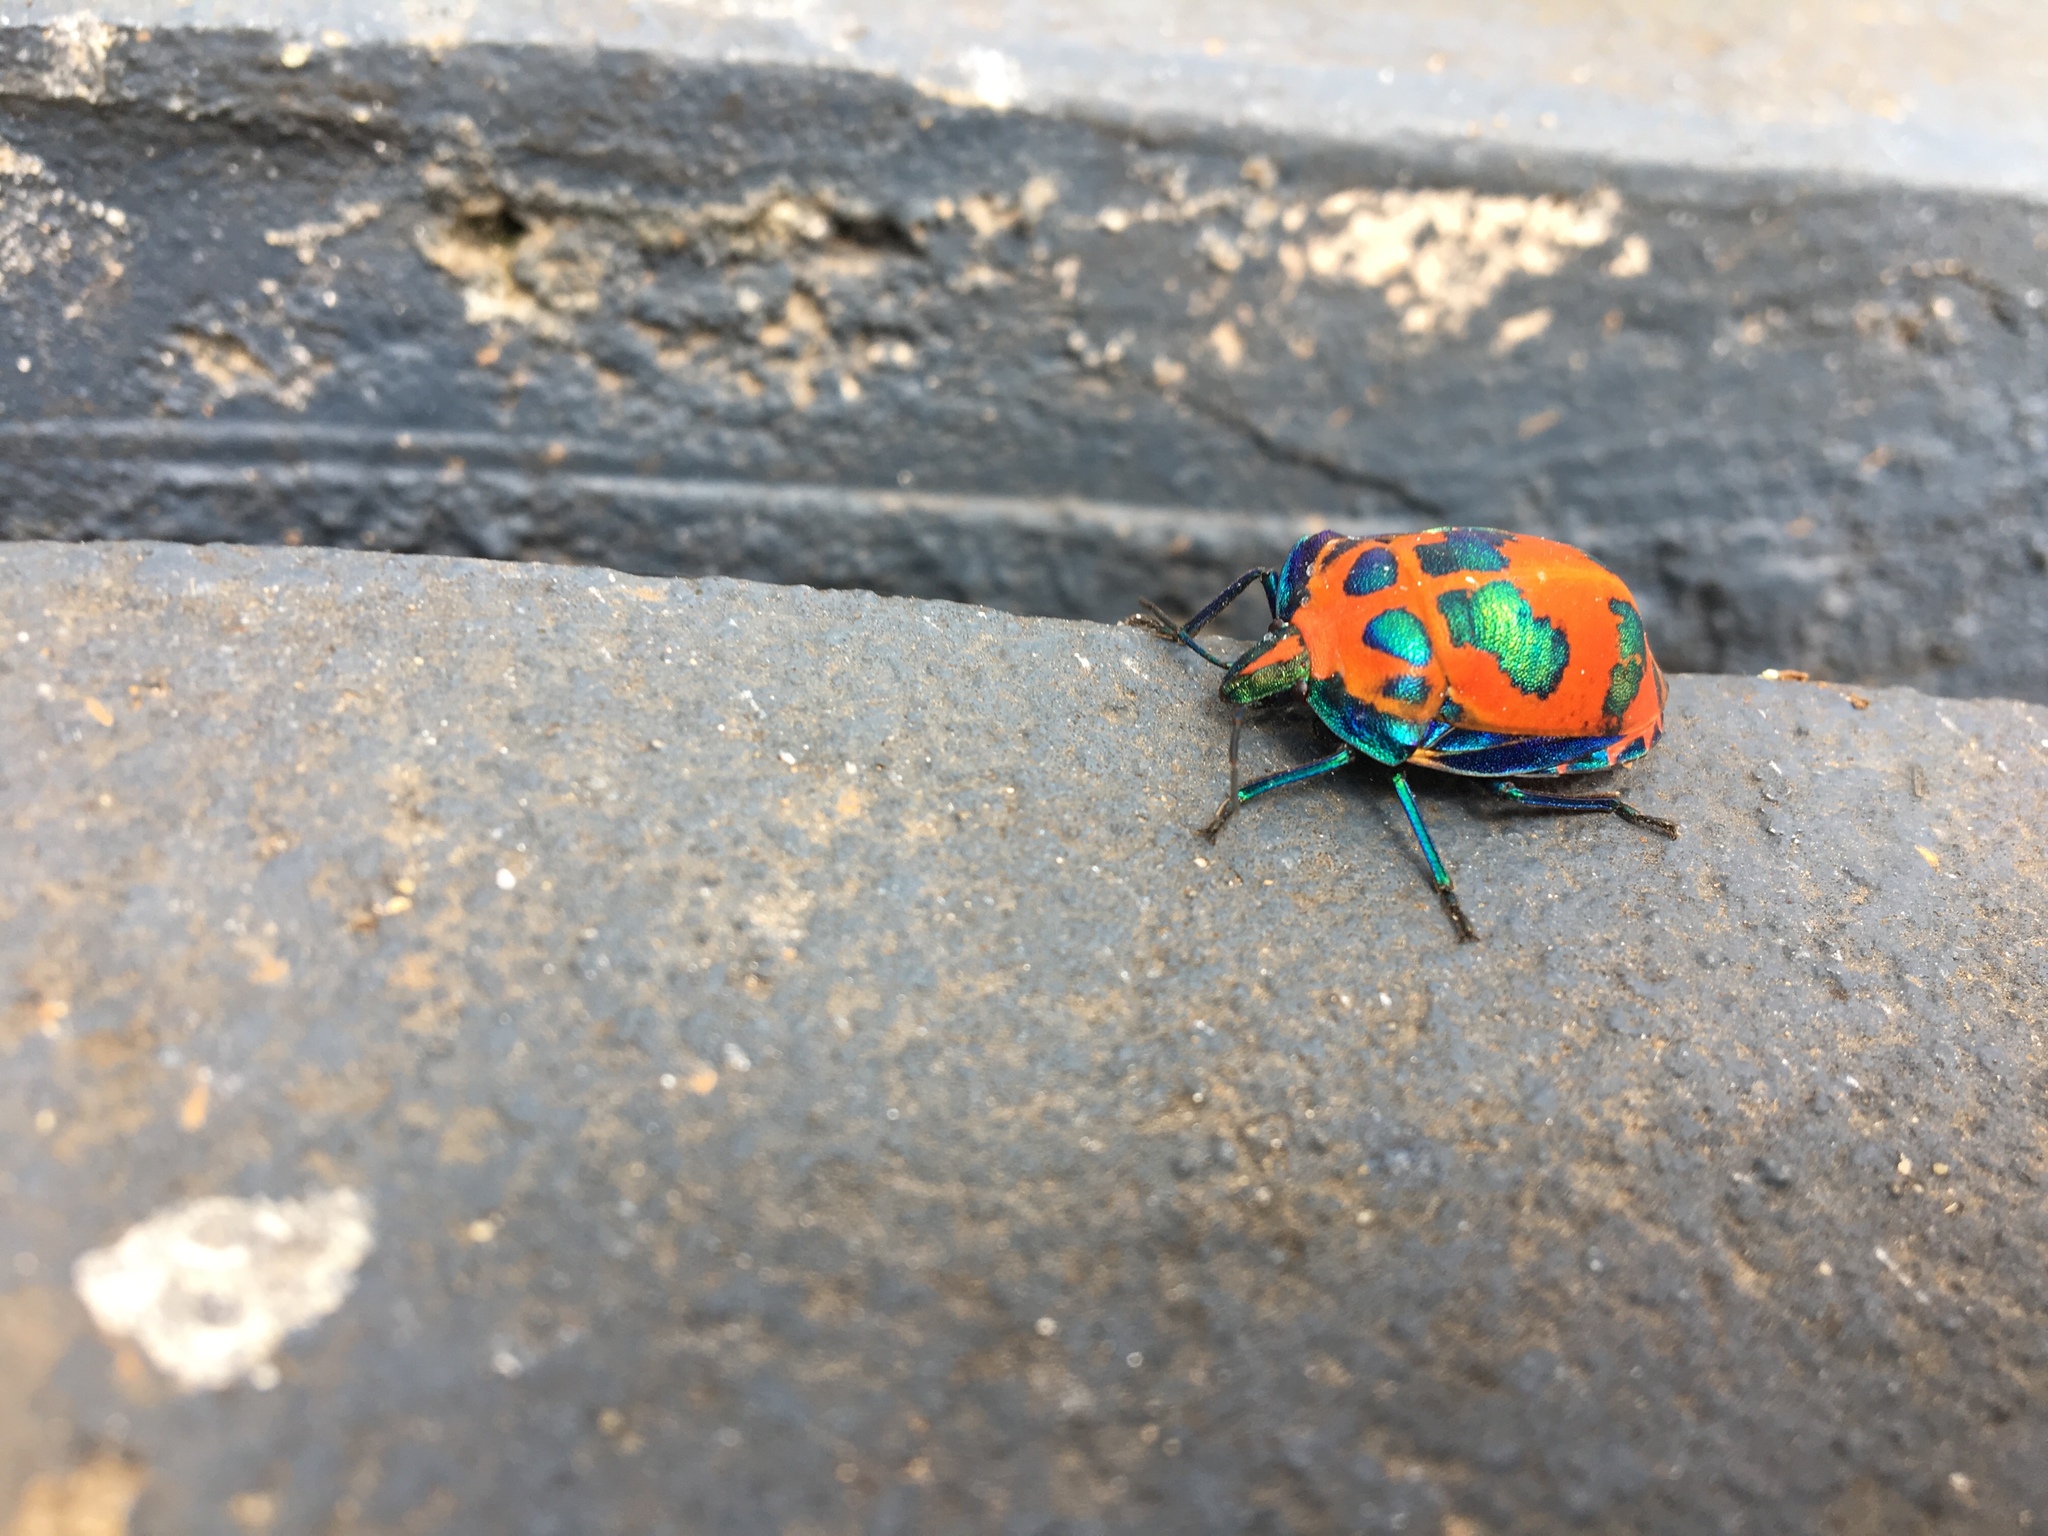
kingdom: Animalia
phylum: Arthropoda
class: Insecta
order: Hemiptera
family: Scutelleridae
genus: Tectocoris
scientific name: Tectocoris diophthalmus
